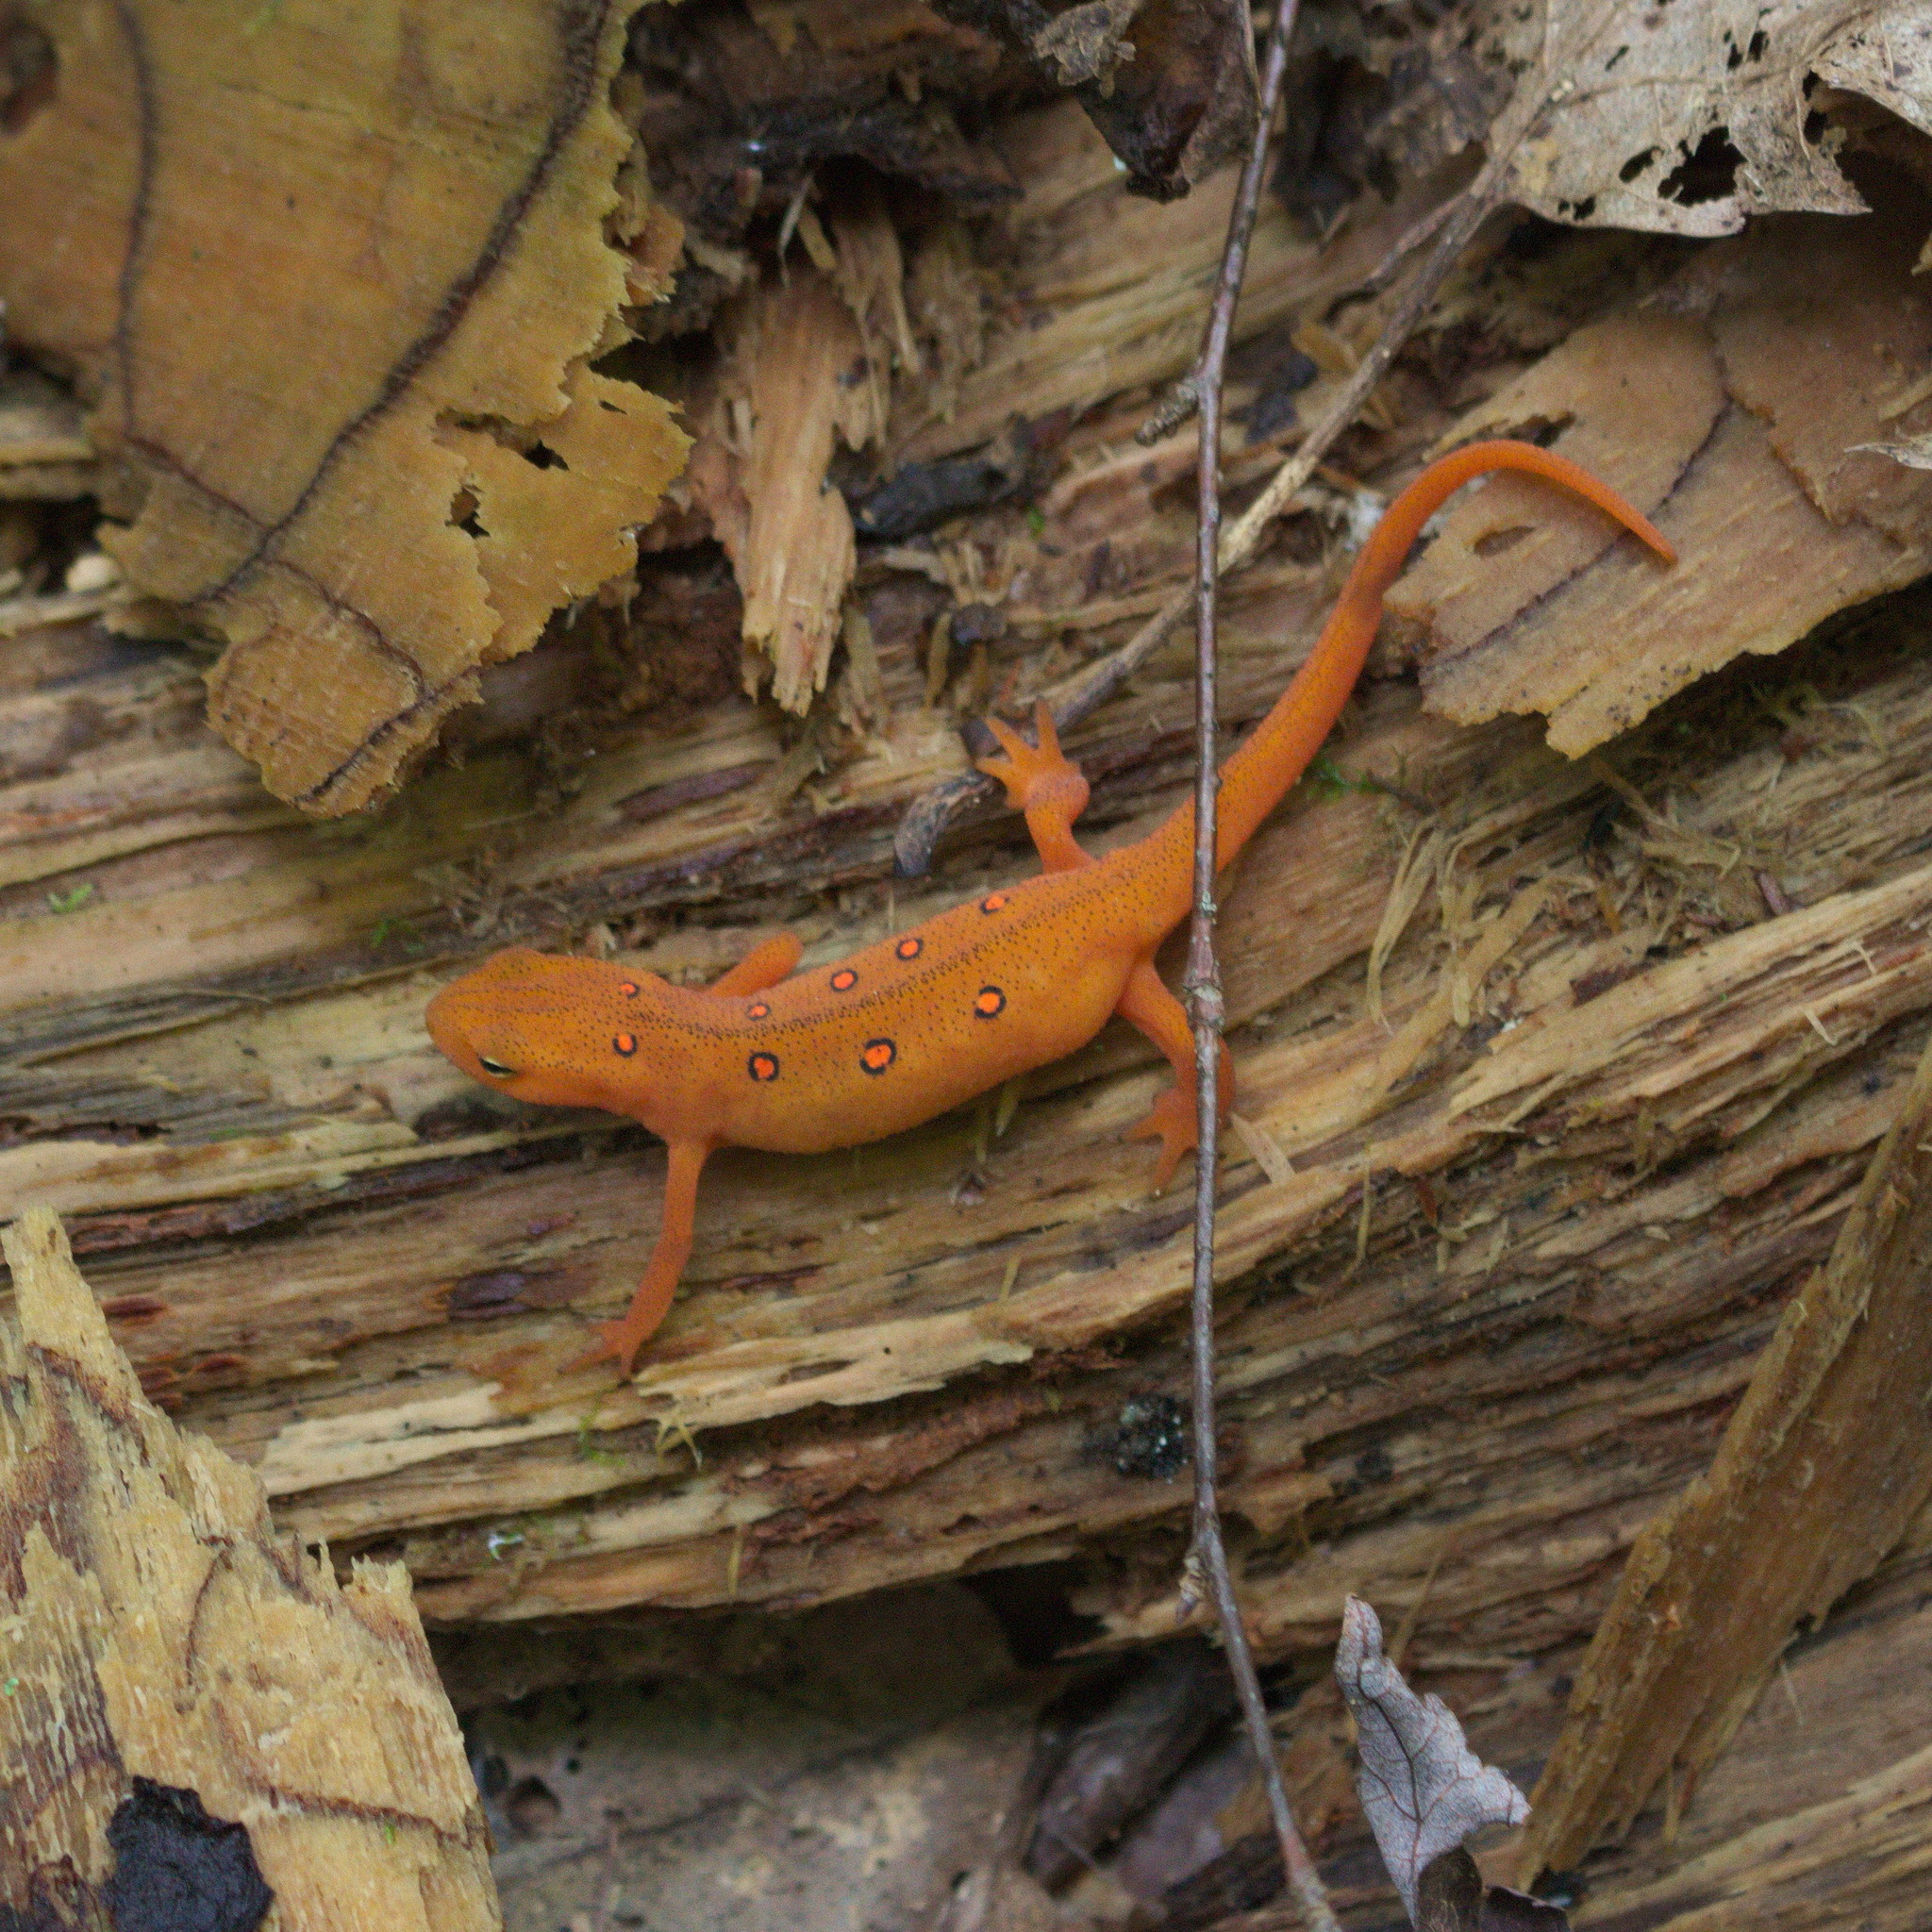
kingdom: Animalia
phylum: Chordata
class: Amphibia
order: Caudata
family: Salamandridae
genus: Notophthalmus
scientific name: Notophthalmus viridescens
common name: Eastern newt
